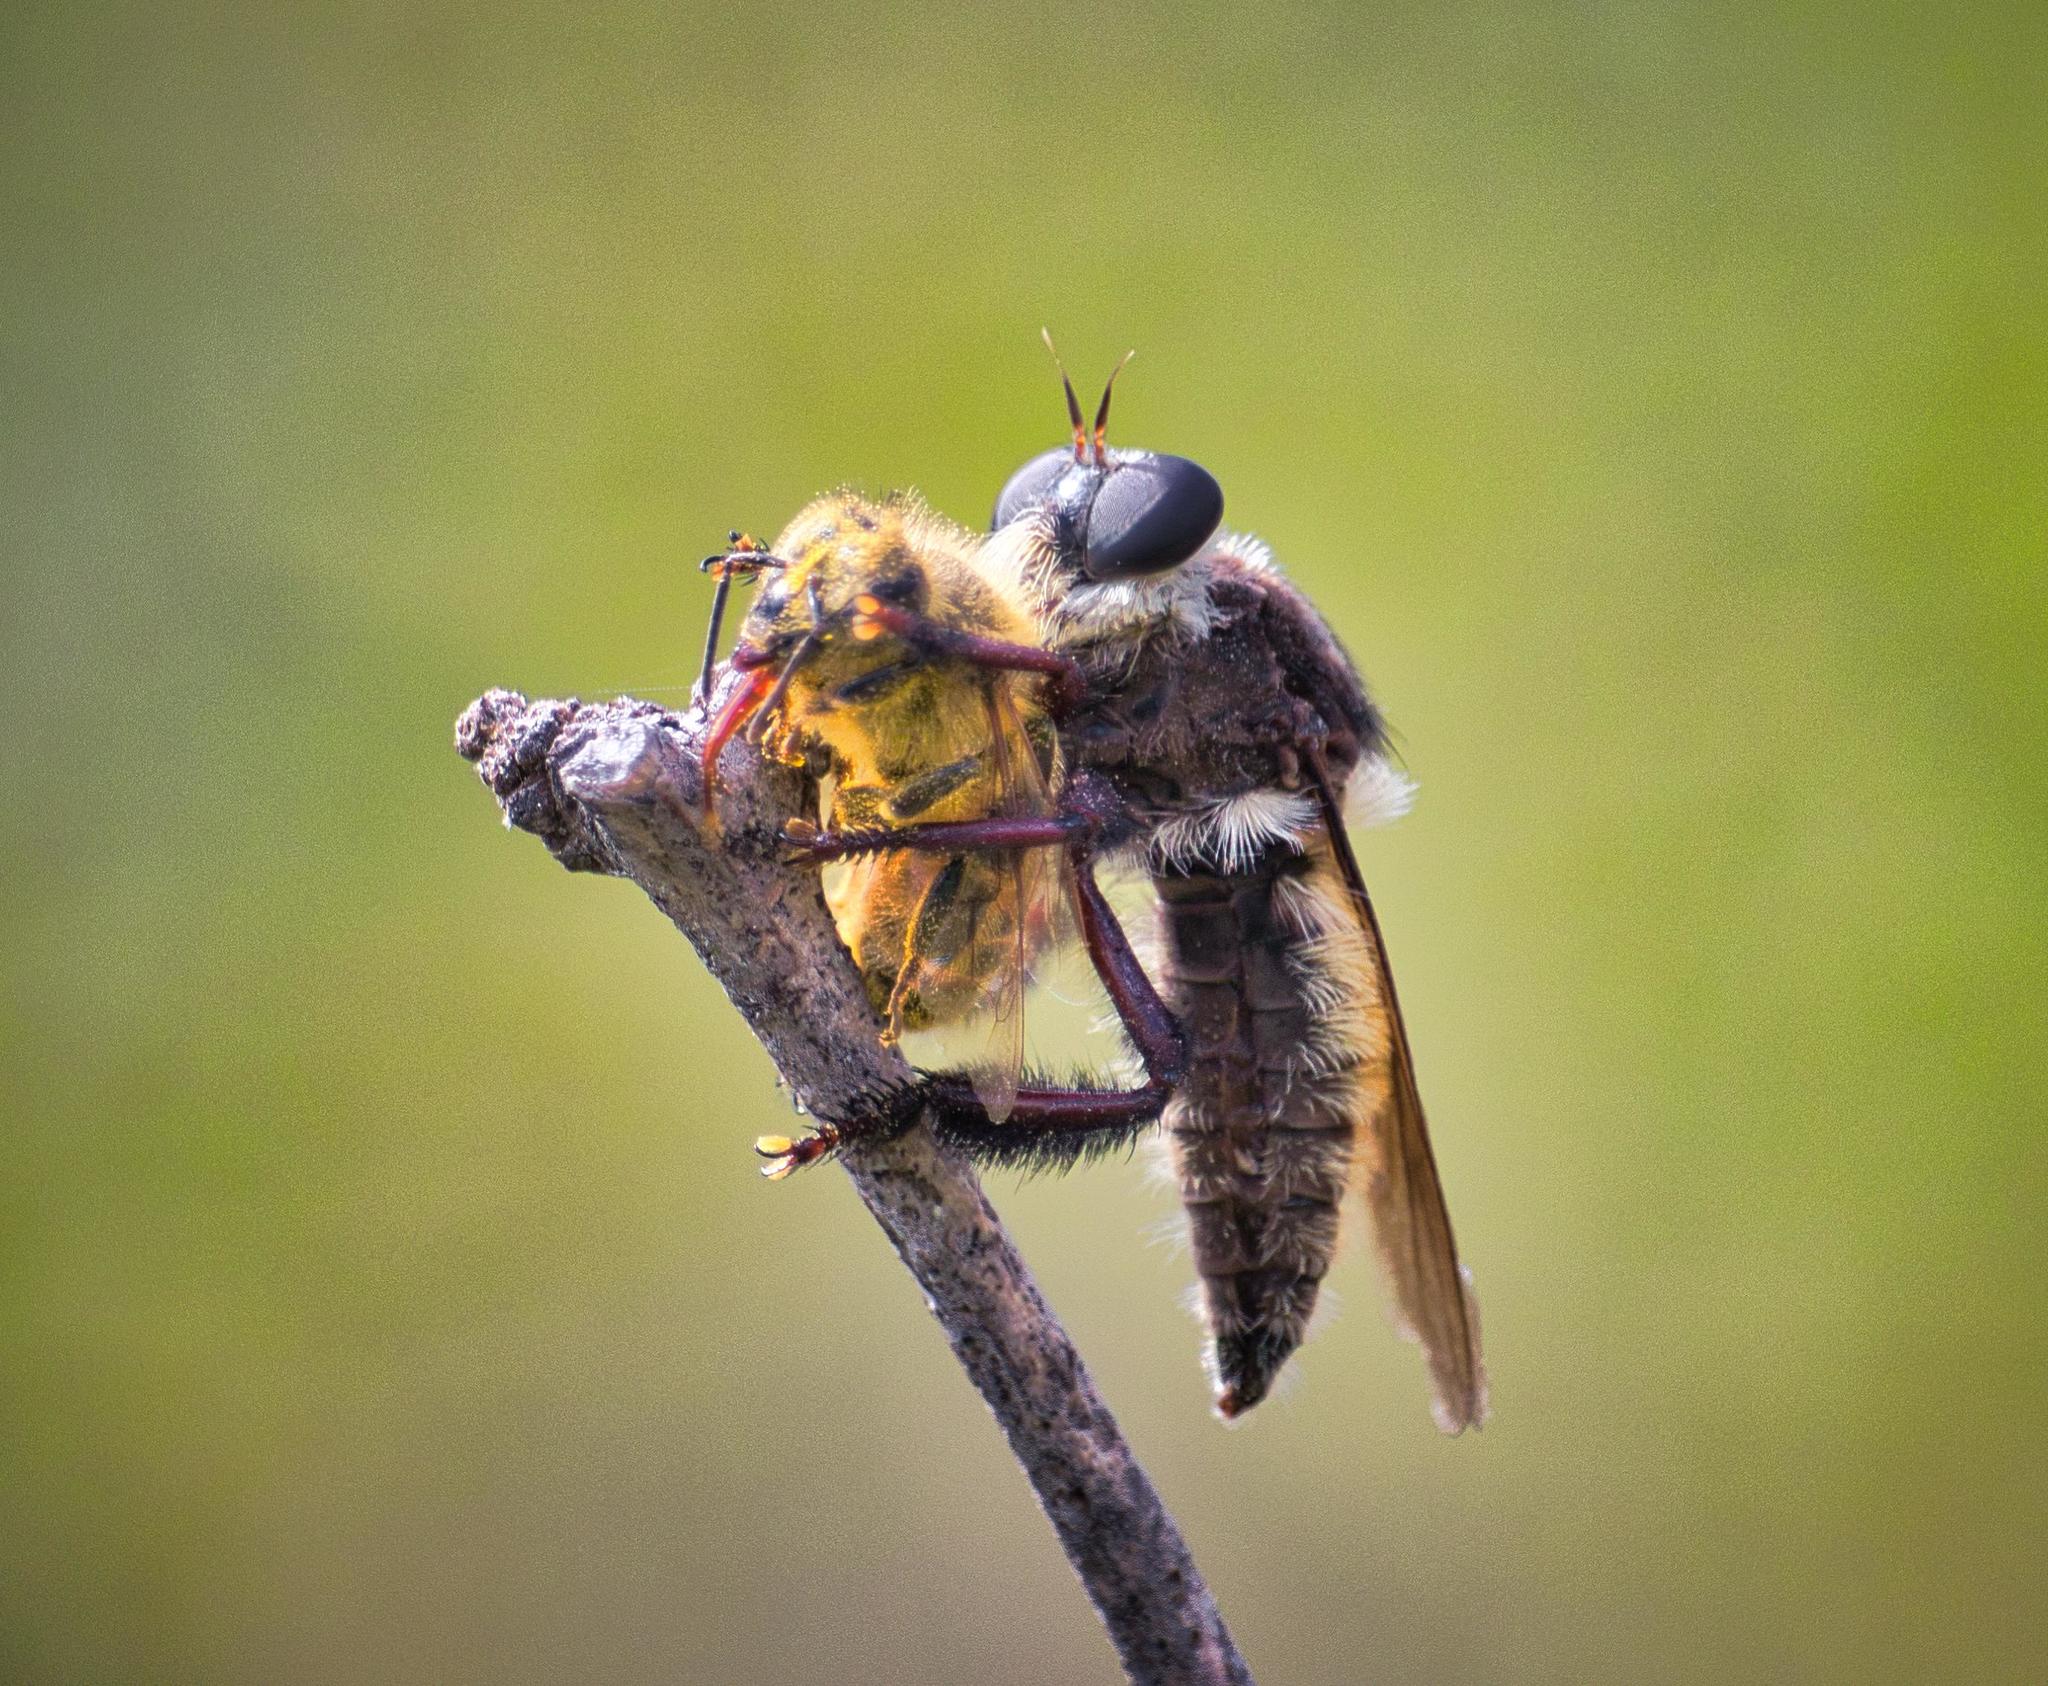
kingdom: Animalia
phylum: Arthropoda
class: Insecta
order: Diptera
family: Asilidae
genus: Mallophora
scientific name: Mallophora fautrix
